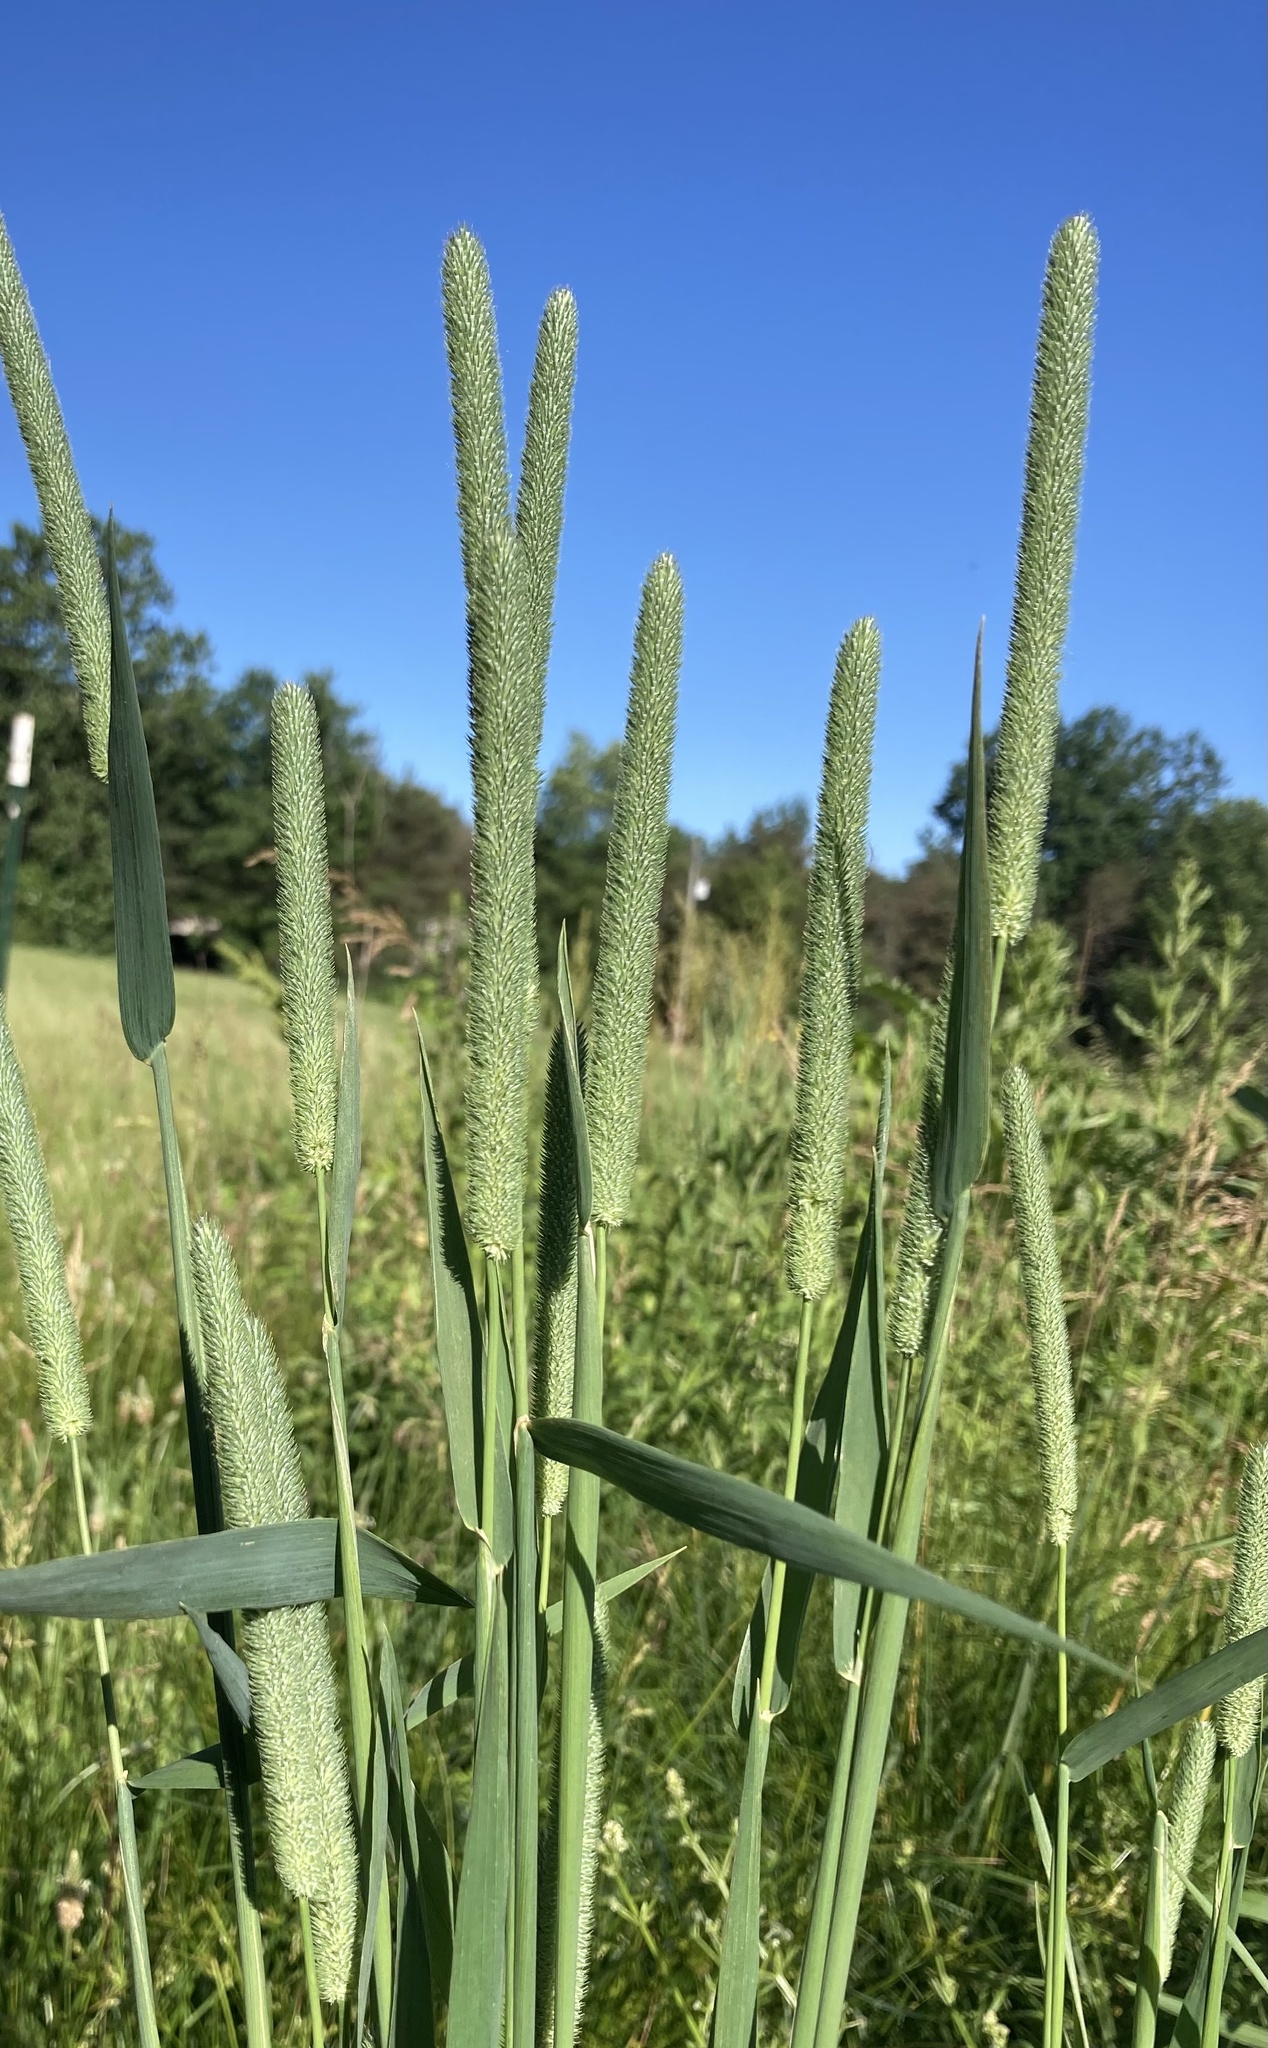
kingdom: Plantae
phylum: Tracheophyta
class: Liliopsida
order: Poales
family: Poaceae
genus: Phleum
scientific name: Phleum pratense
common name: Timothy grass
